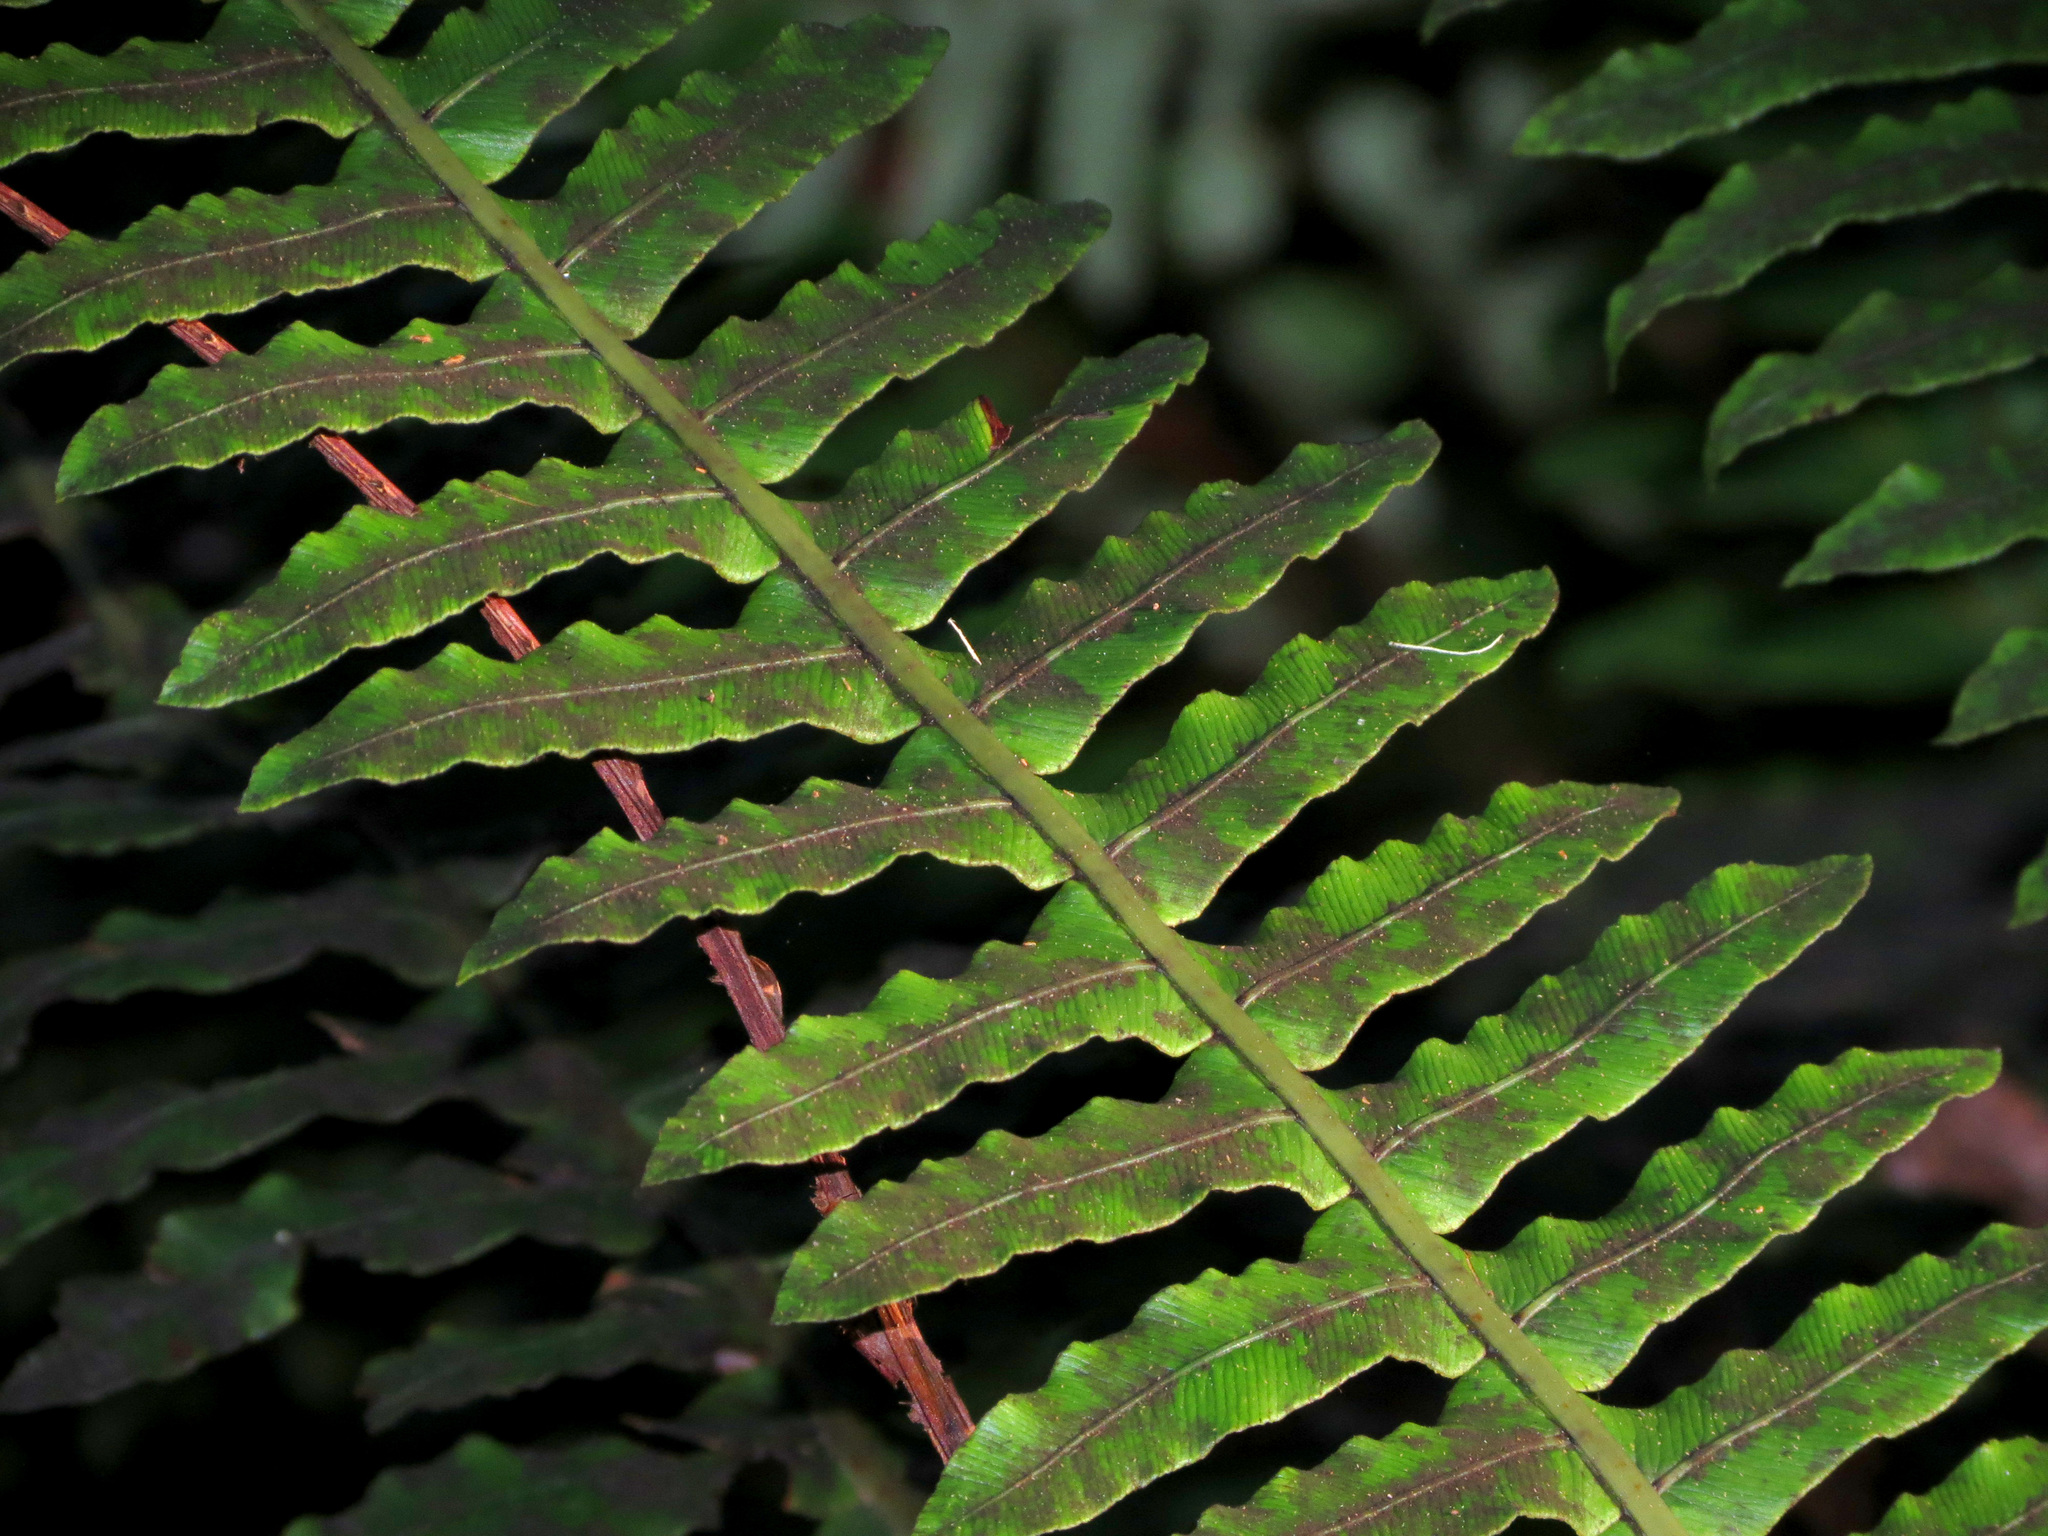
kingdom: Plantae
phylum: Tracheophyta
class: Polypodiopsida
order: Polypodiales
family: Blechnaceae
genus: Lomaria
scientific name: Lomaria discolor
